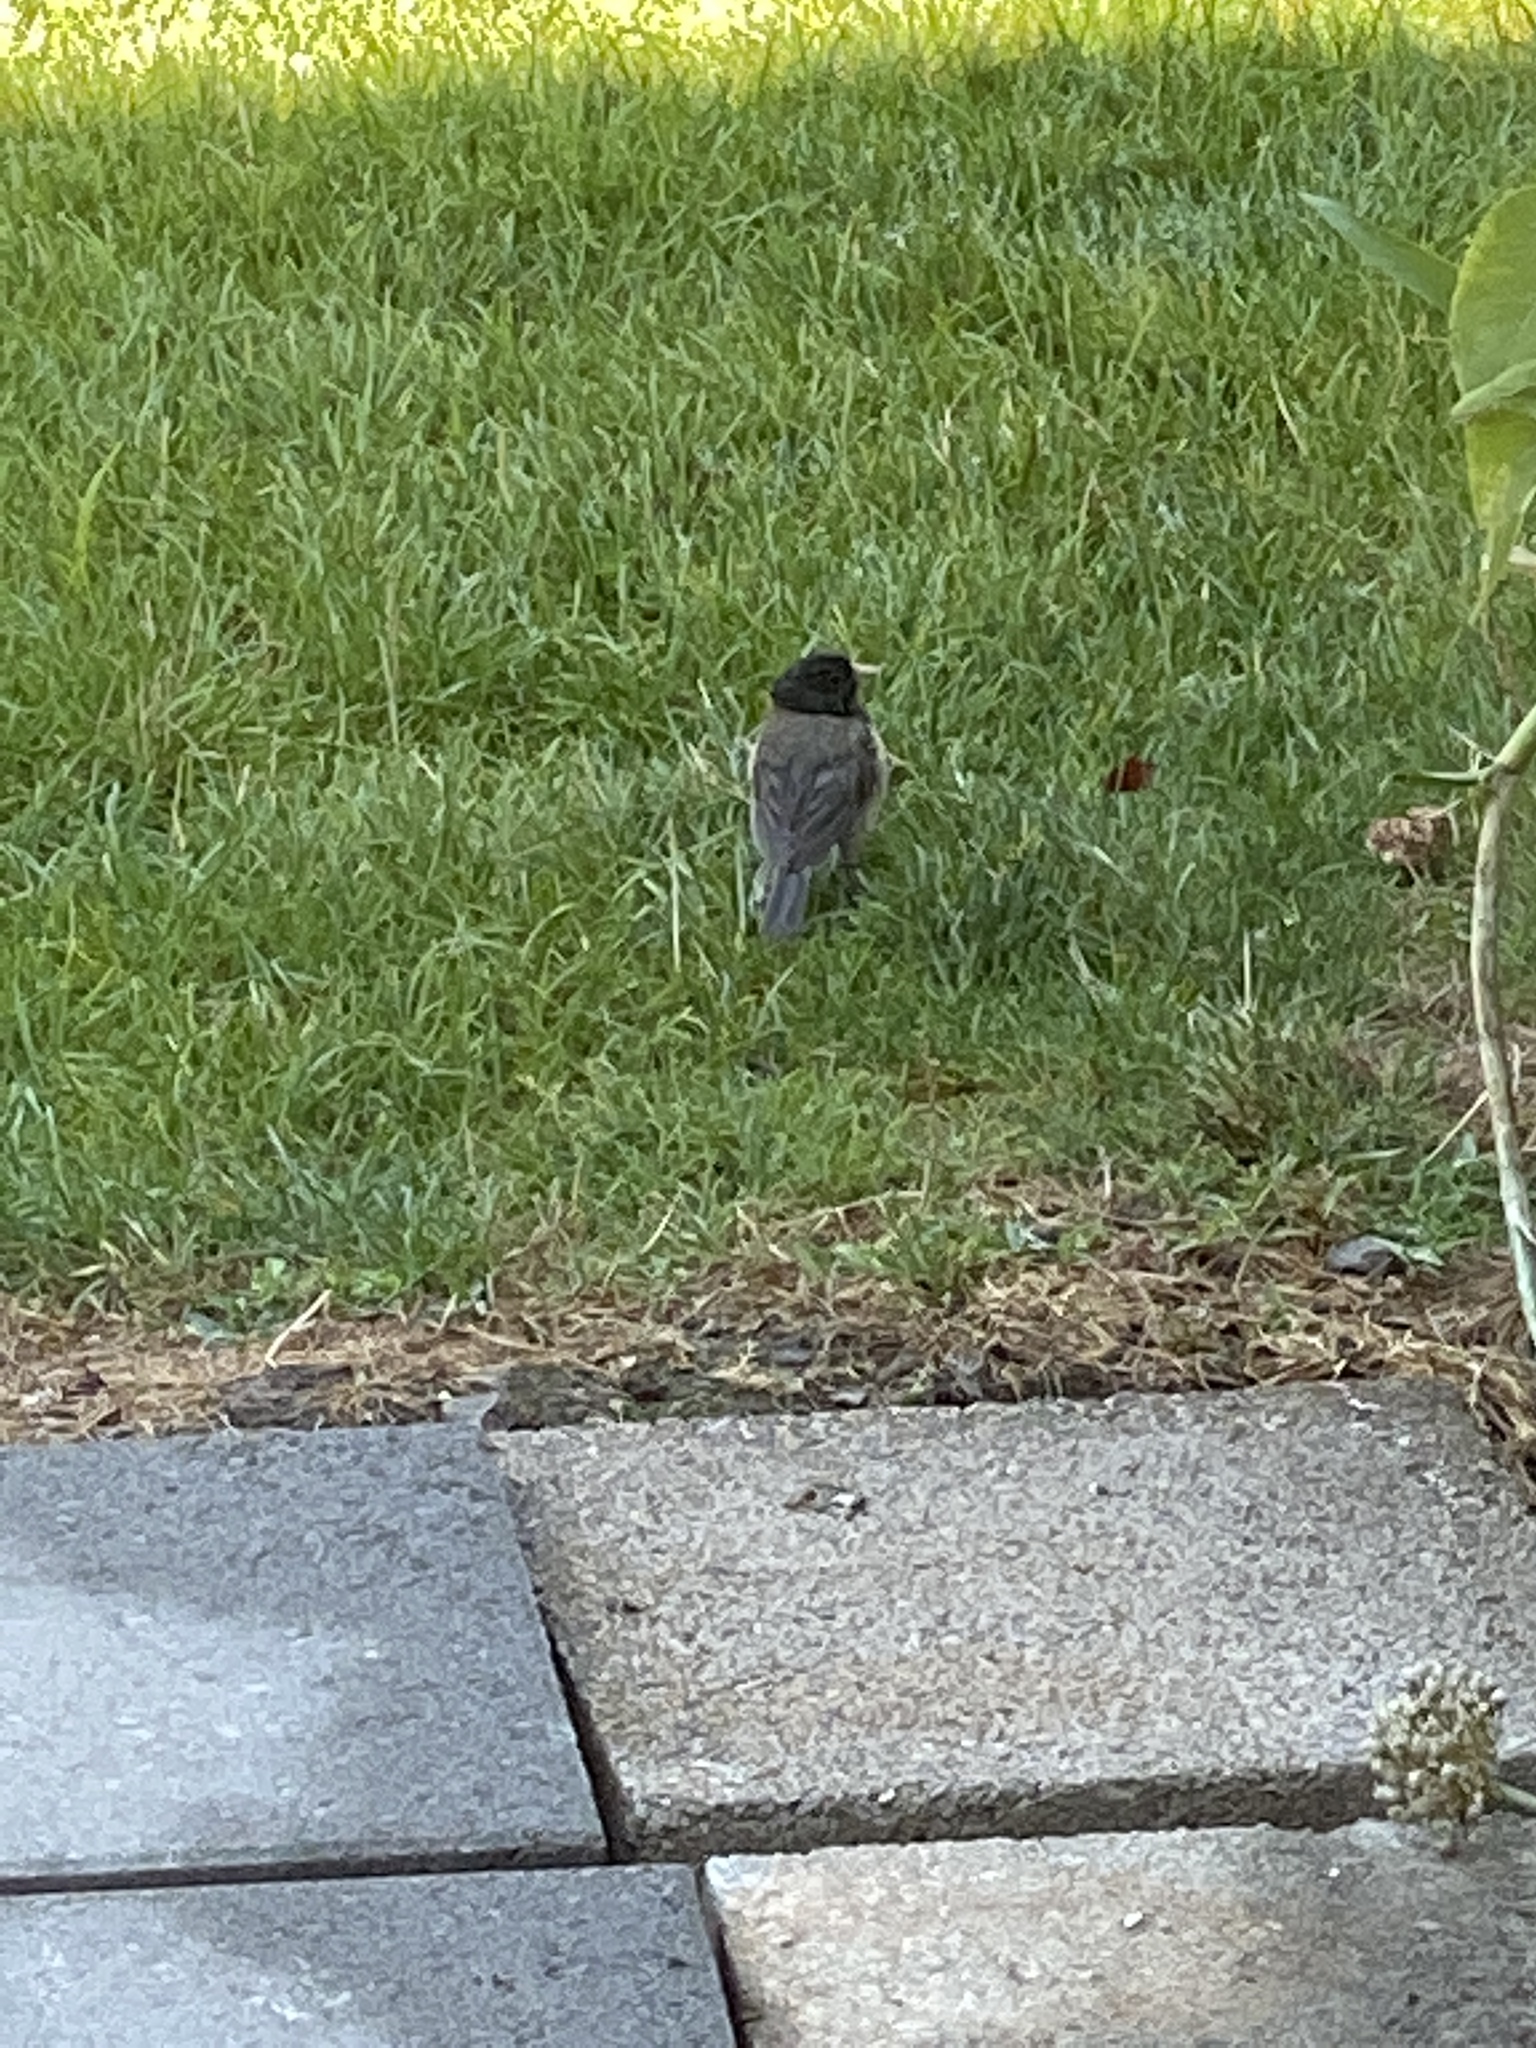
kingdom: Animalia
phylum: Chordata
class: Aves
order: Passeriformes
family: Passerellidae
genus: Junco
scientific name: Junco hyemalis
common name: Dark-eyed junco
